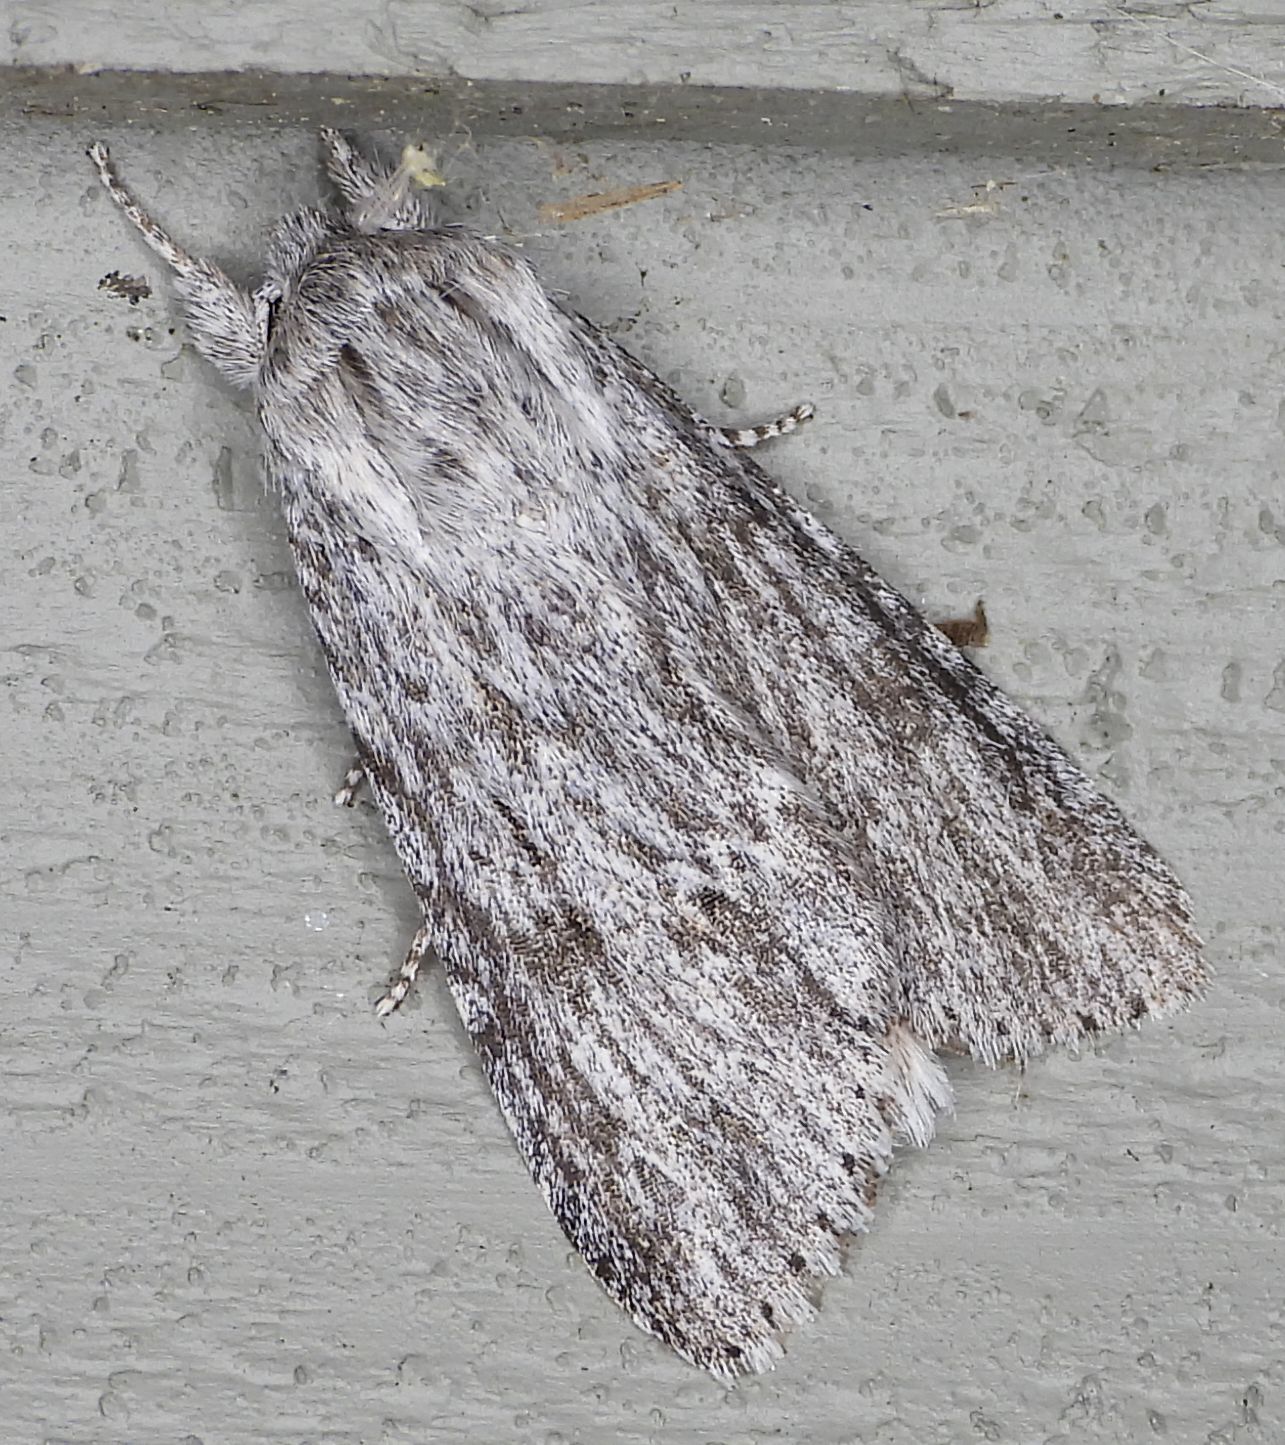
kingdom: Animalia
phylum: Arthropoda
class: Insecta
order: Lepidoptera
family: Noctuidae
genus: Acronicta
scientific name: Acronicta oblinita
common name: Smeared dagger
